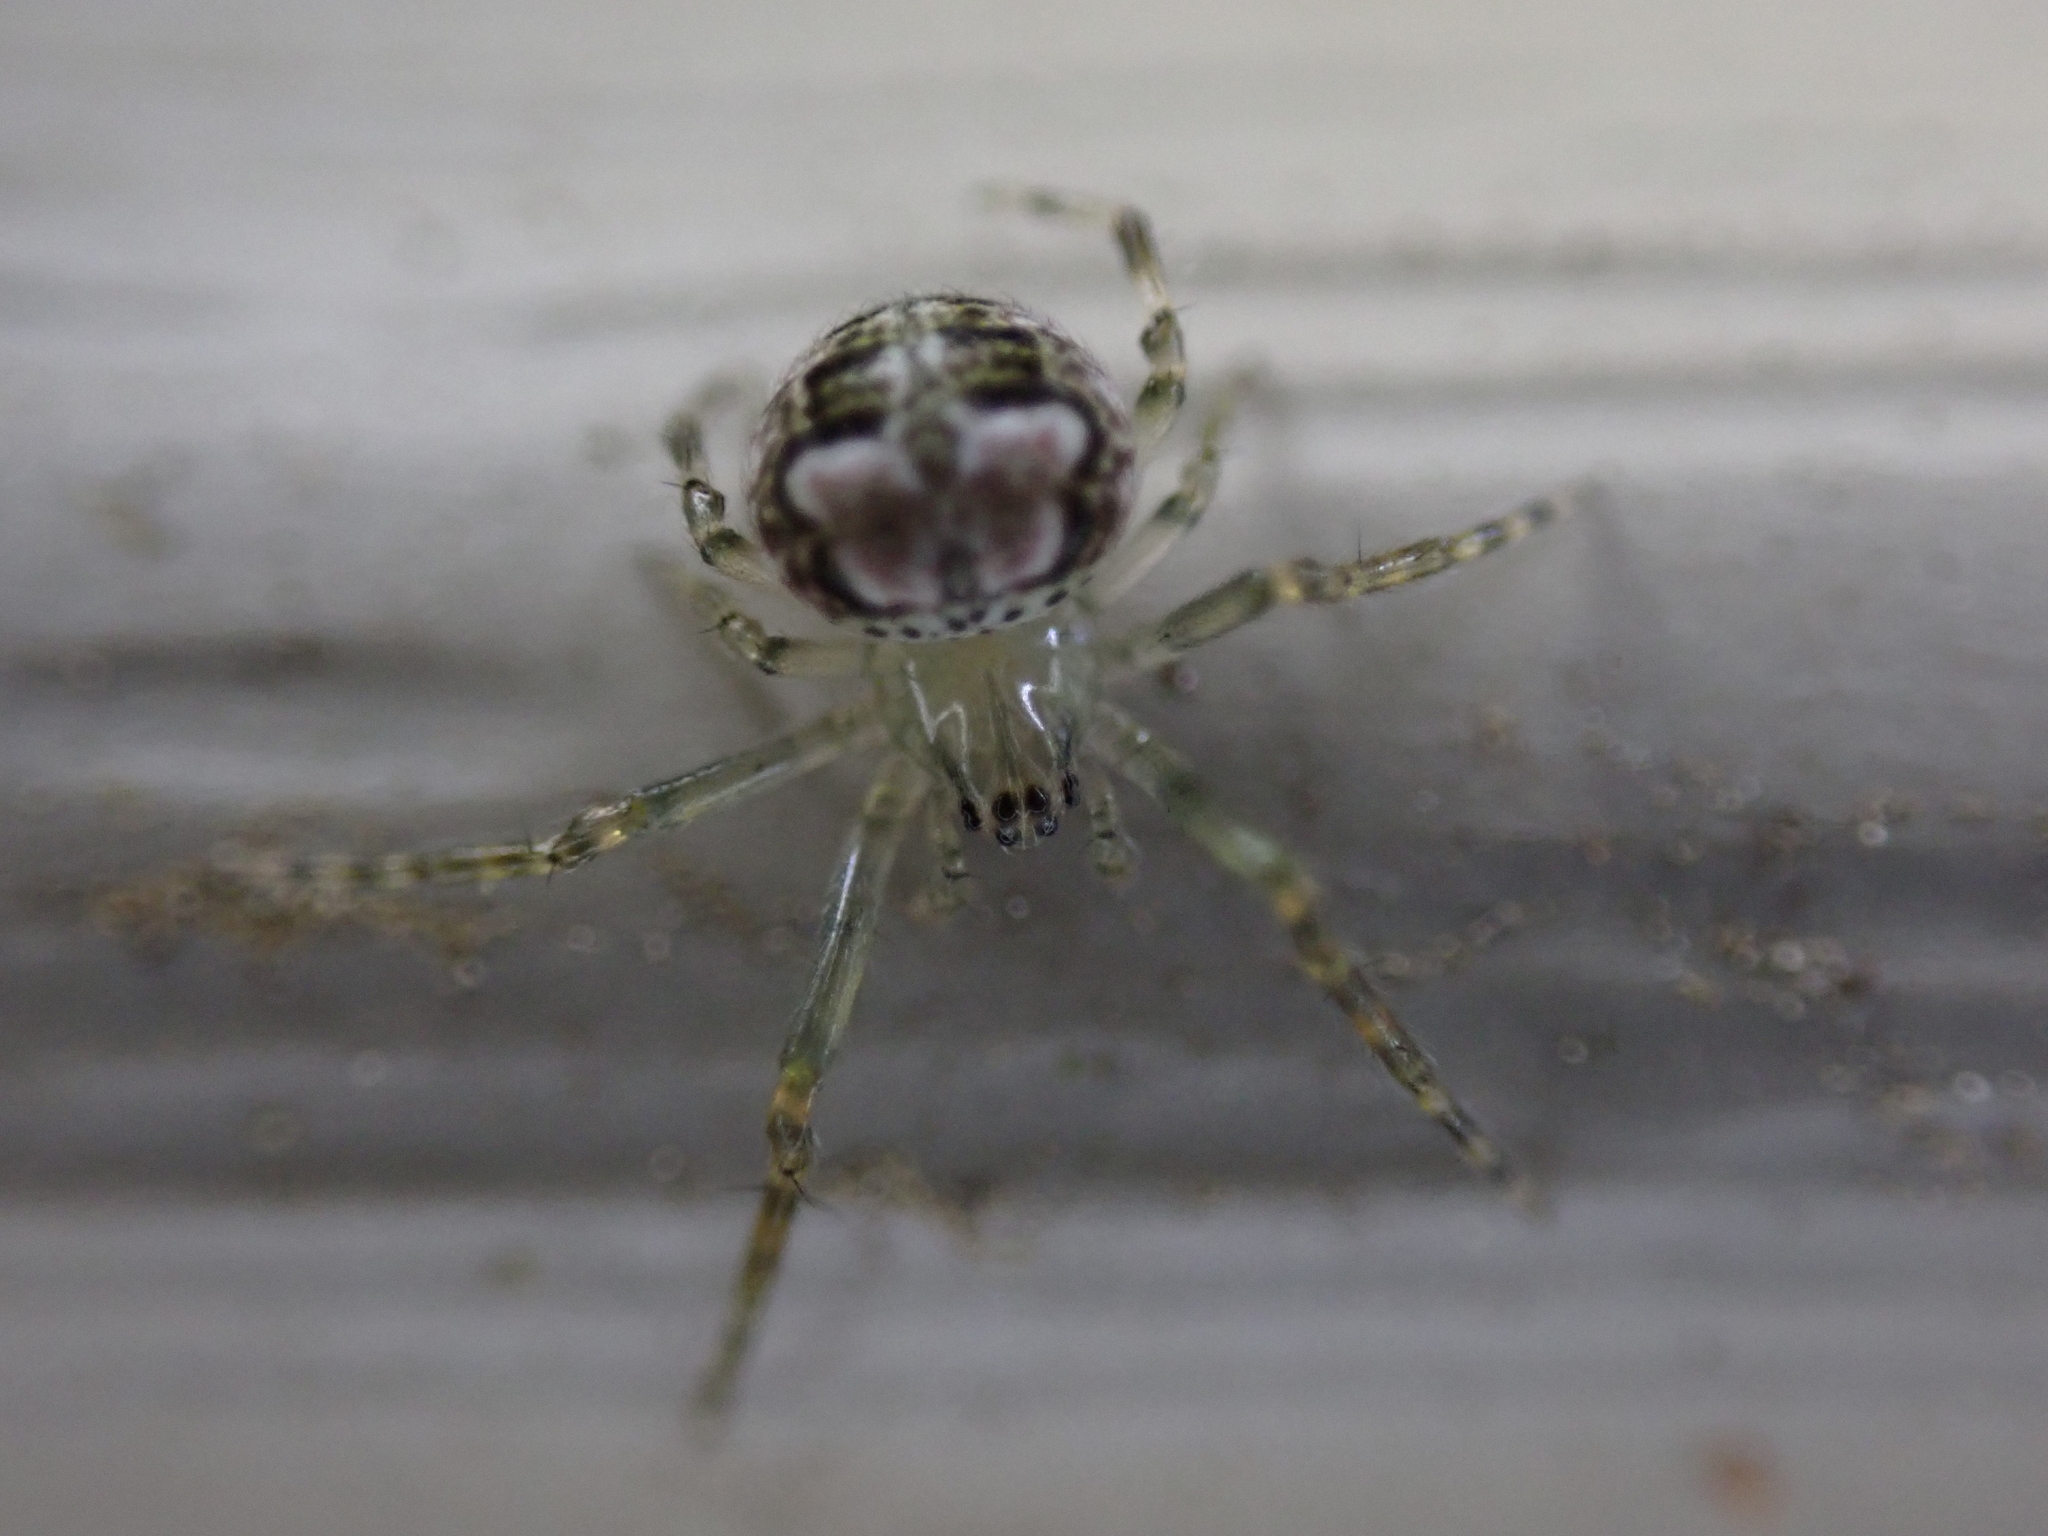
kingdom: Animalia
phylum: Arthropoda
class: Arachnida
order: Araneae
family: Araneidae
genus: Araneus
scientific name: Araneus pegnia
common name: Orb weavers
